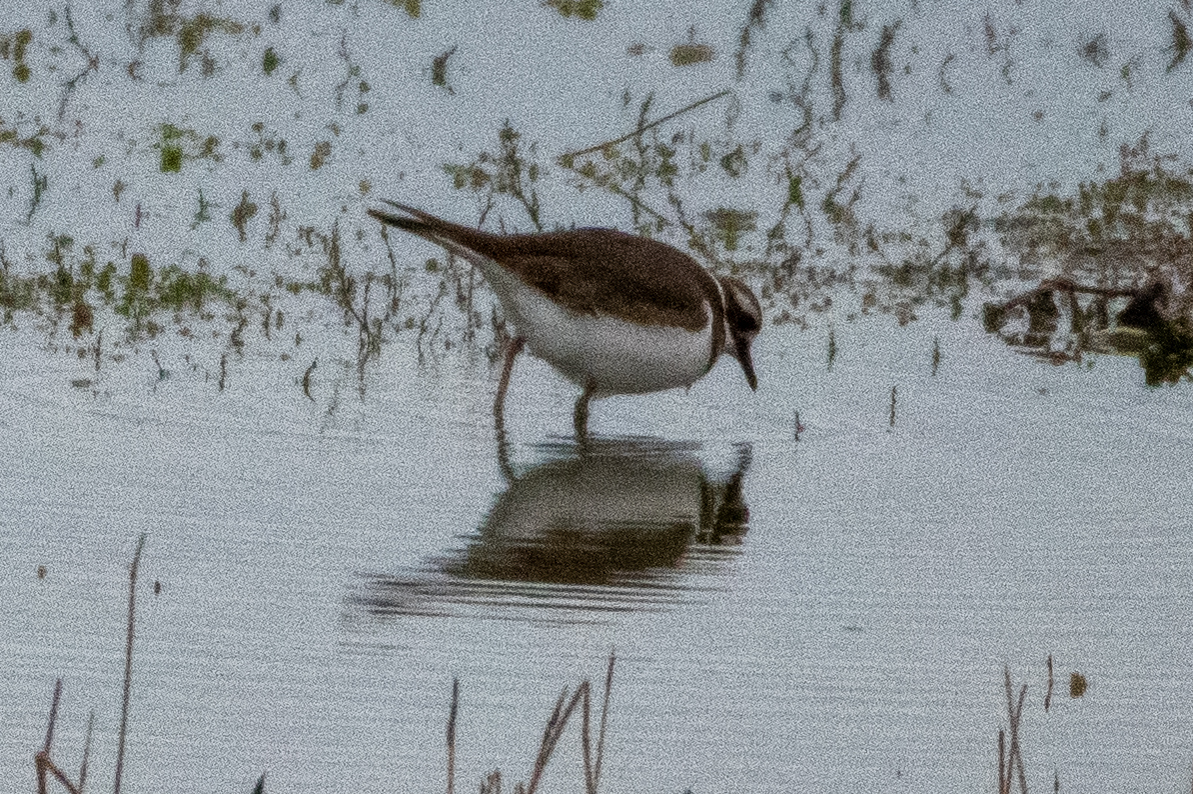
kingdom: Animalia
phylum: Chordata
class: Aves
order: Charadriiformes
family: Charadriidae
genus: Charadrius
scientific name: Charadrius vociferus
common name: Killdeer
